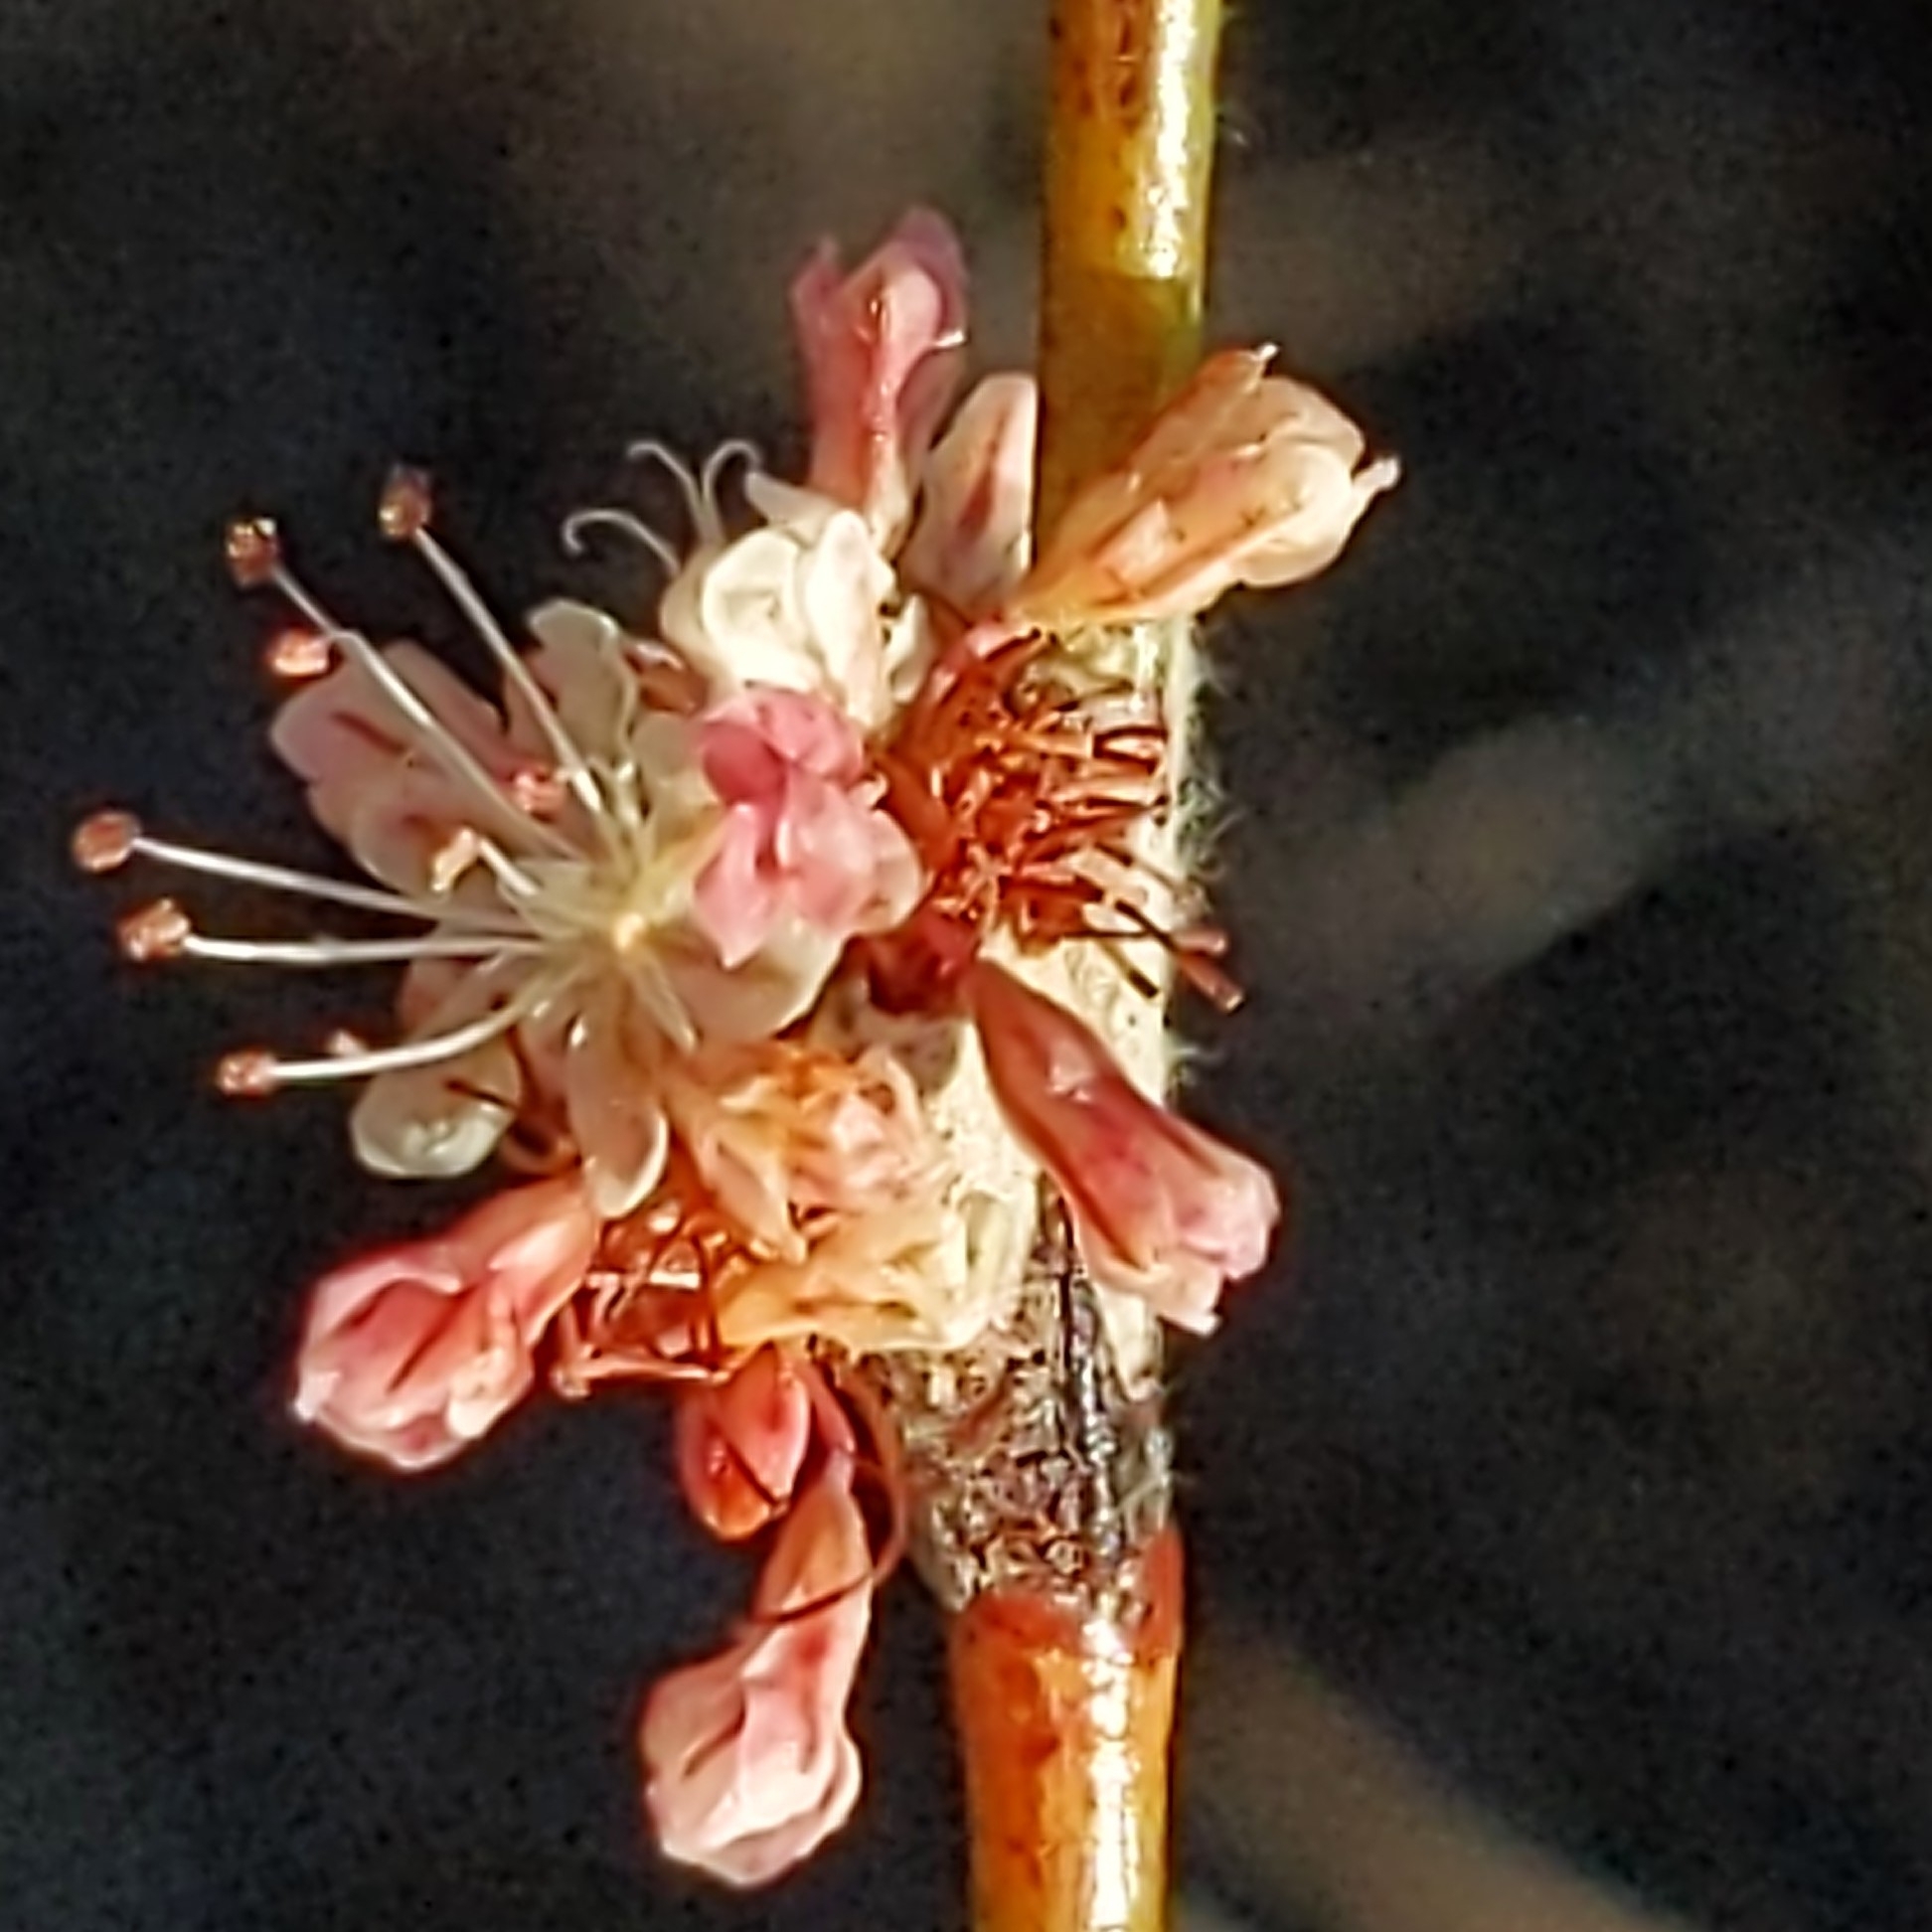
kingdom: Plantae
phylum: Tracheophyta
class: Magnoliopsida
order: Caryophyllales
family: Polygonaceae
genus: Eriogonum
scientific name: Eriogonum elongatum
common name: Long-stem wild buckwheat
